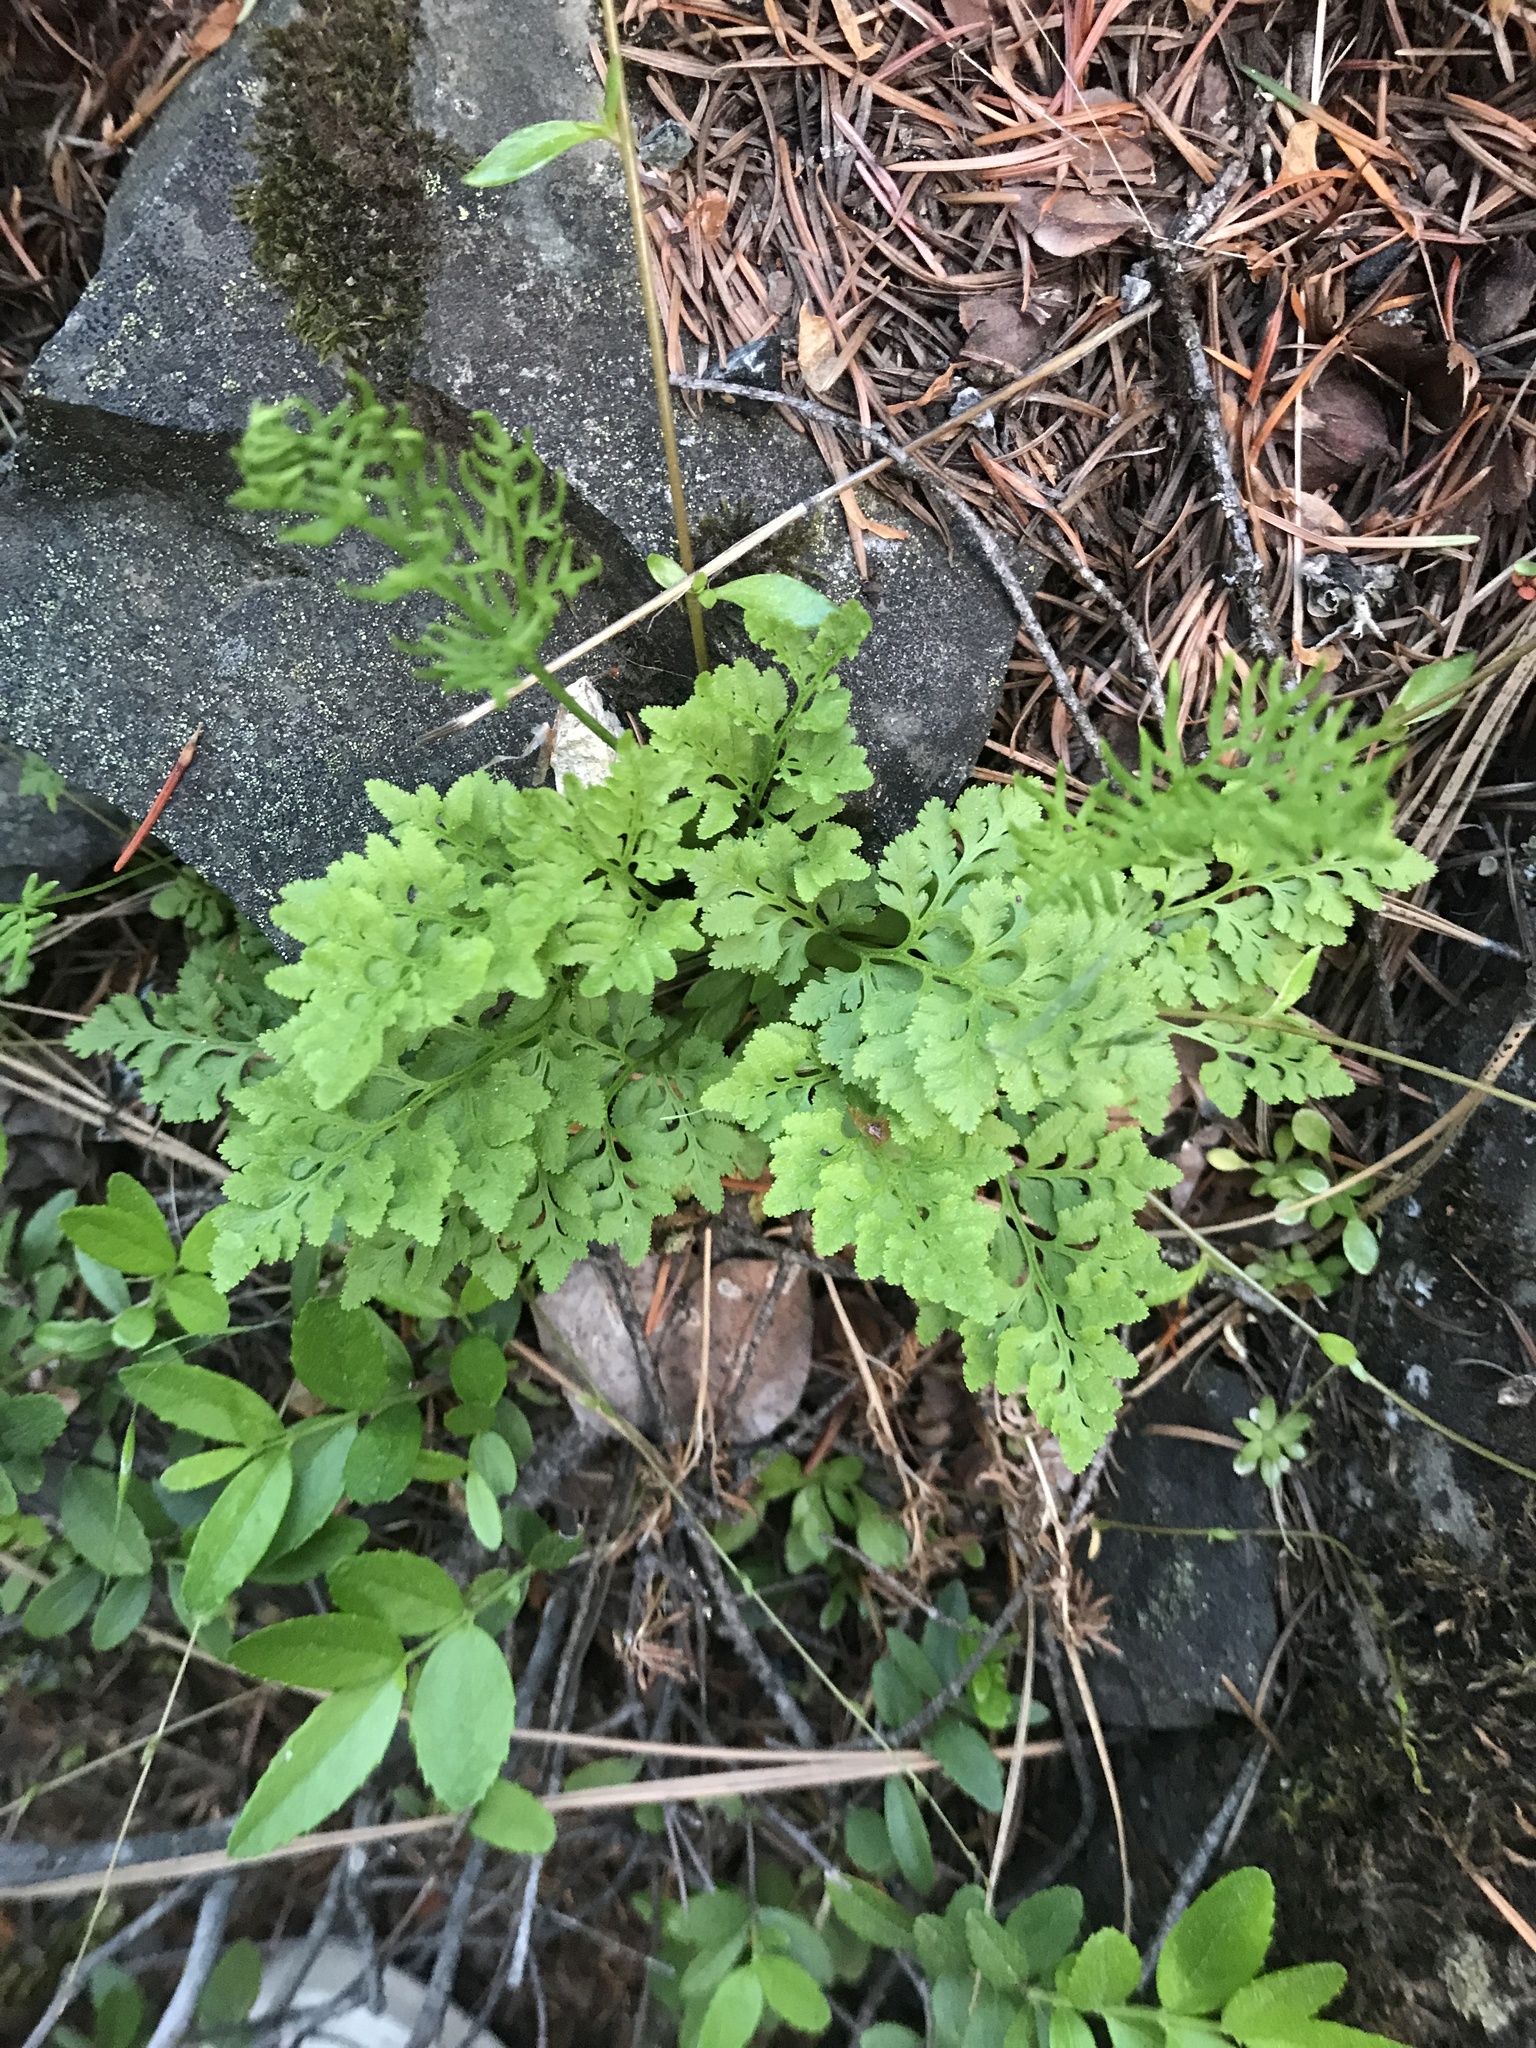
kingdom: Plantae
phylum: Tracheophyta
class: Polypodiopsida
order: Polypodiales
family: Pteridaceae
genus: Cryptogramma
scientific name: Cryptogramma acrostichoides
